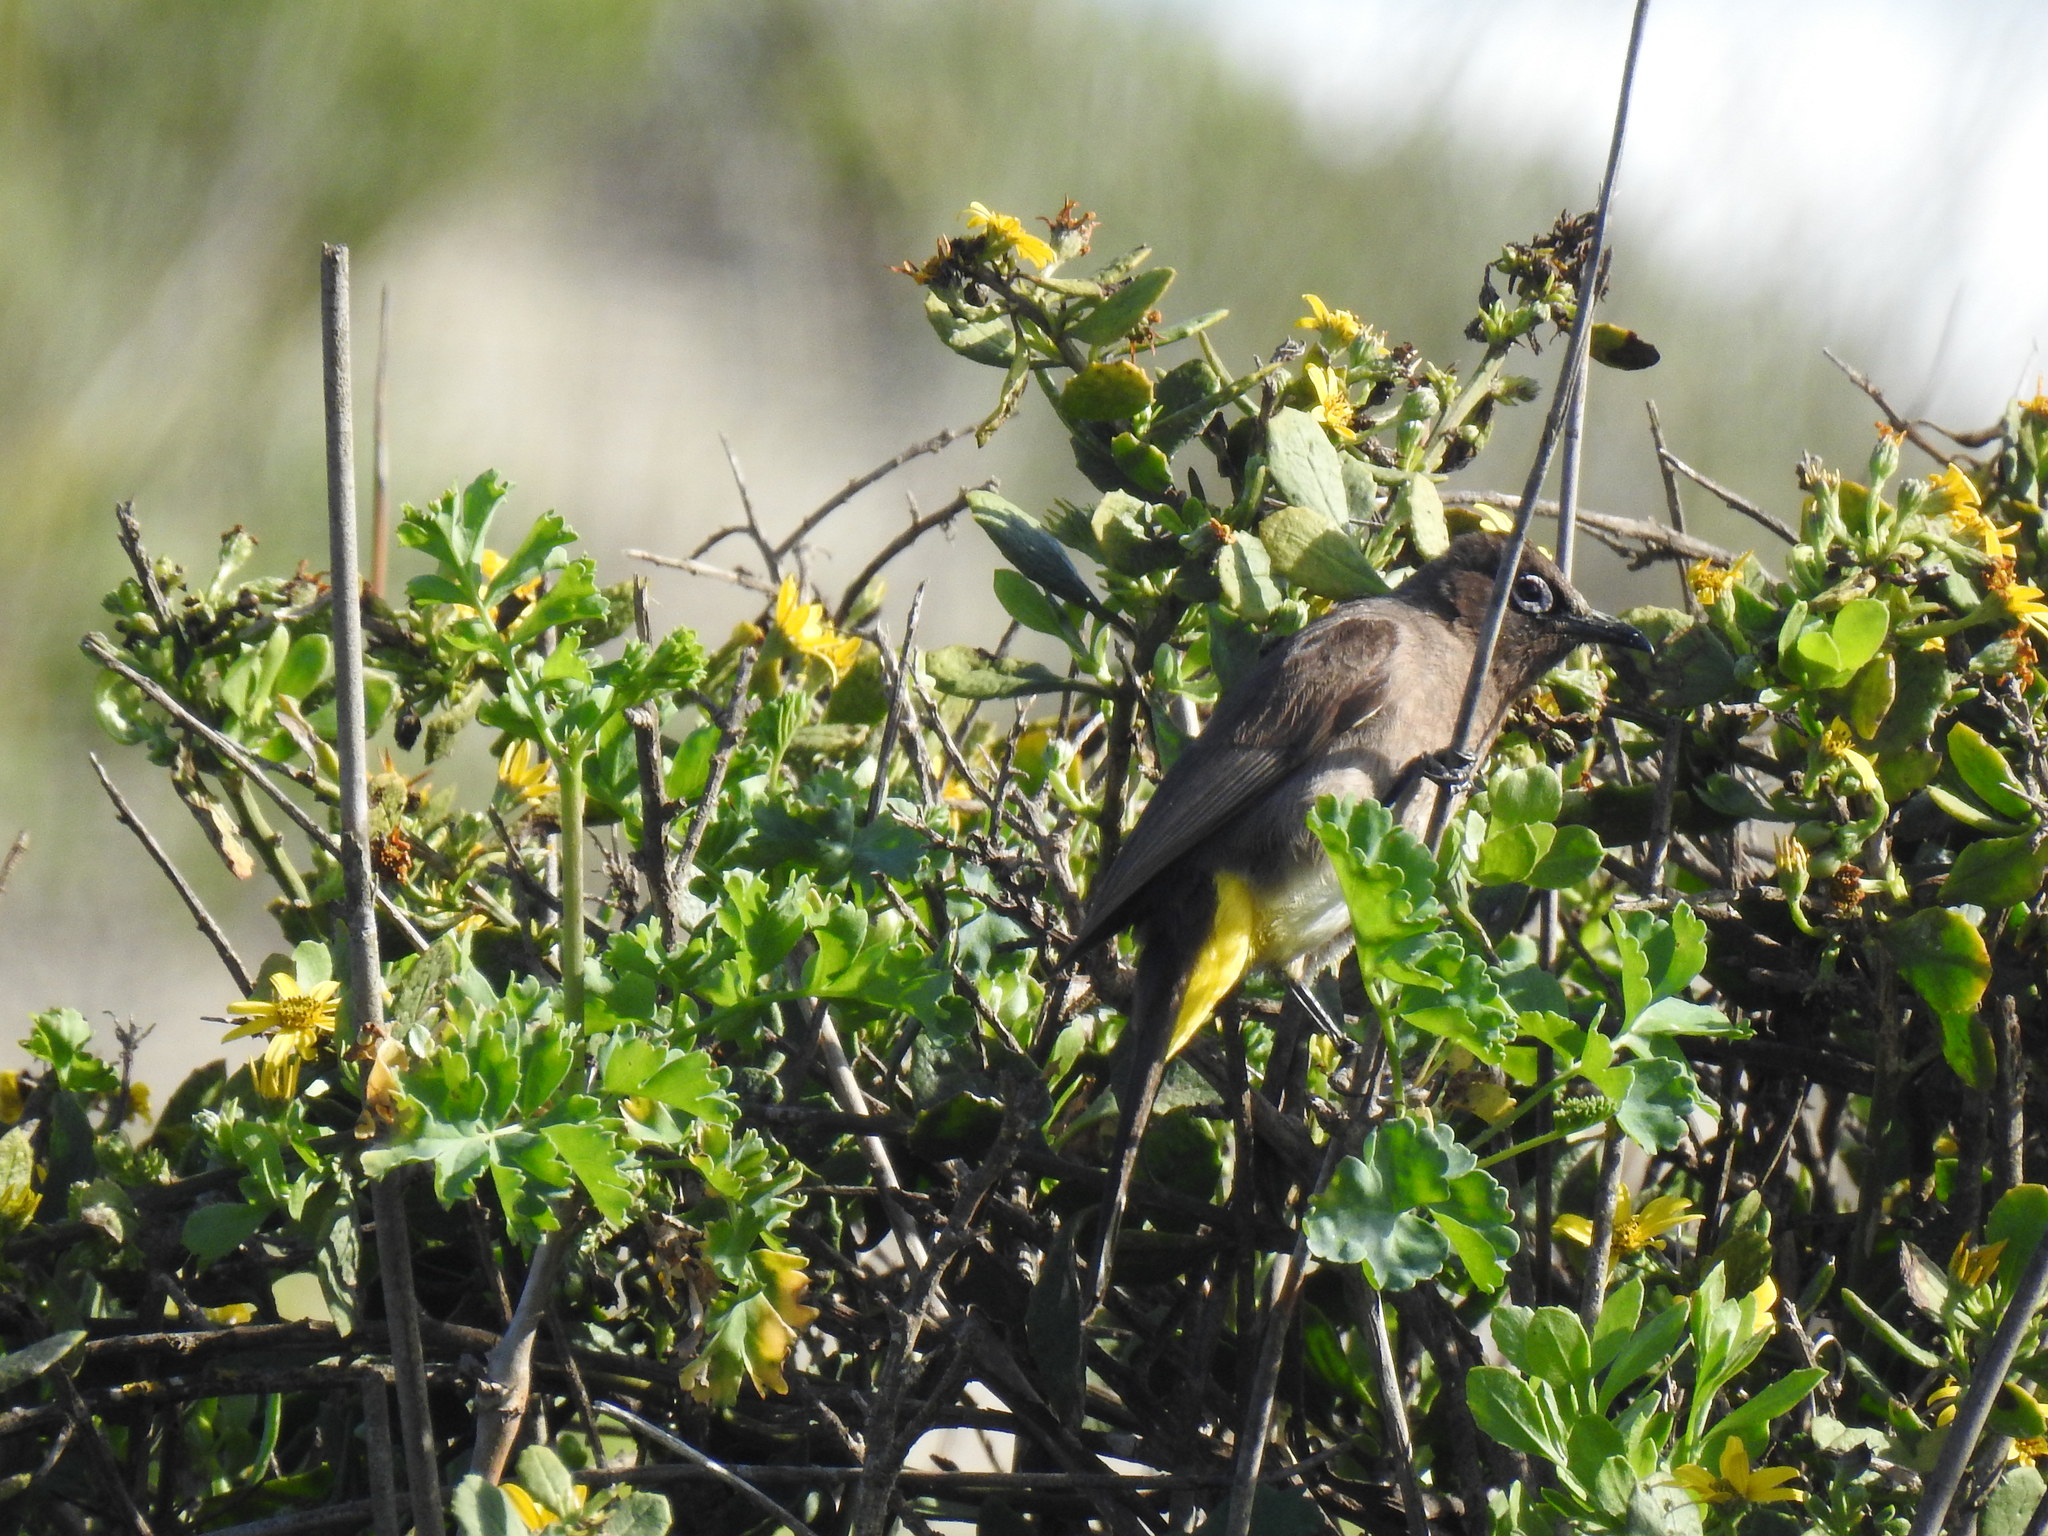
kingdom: Animalia
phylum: Chordata
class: Aves
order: Passeriformes
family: Pycnonotidae
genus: Pycnonotus
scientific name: Pycnonotus capensis
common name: Cape bulbul
